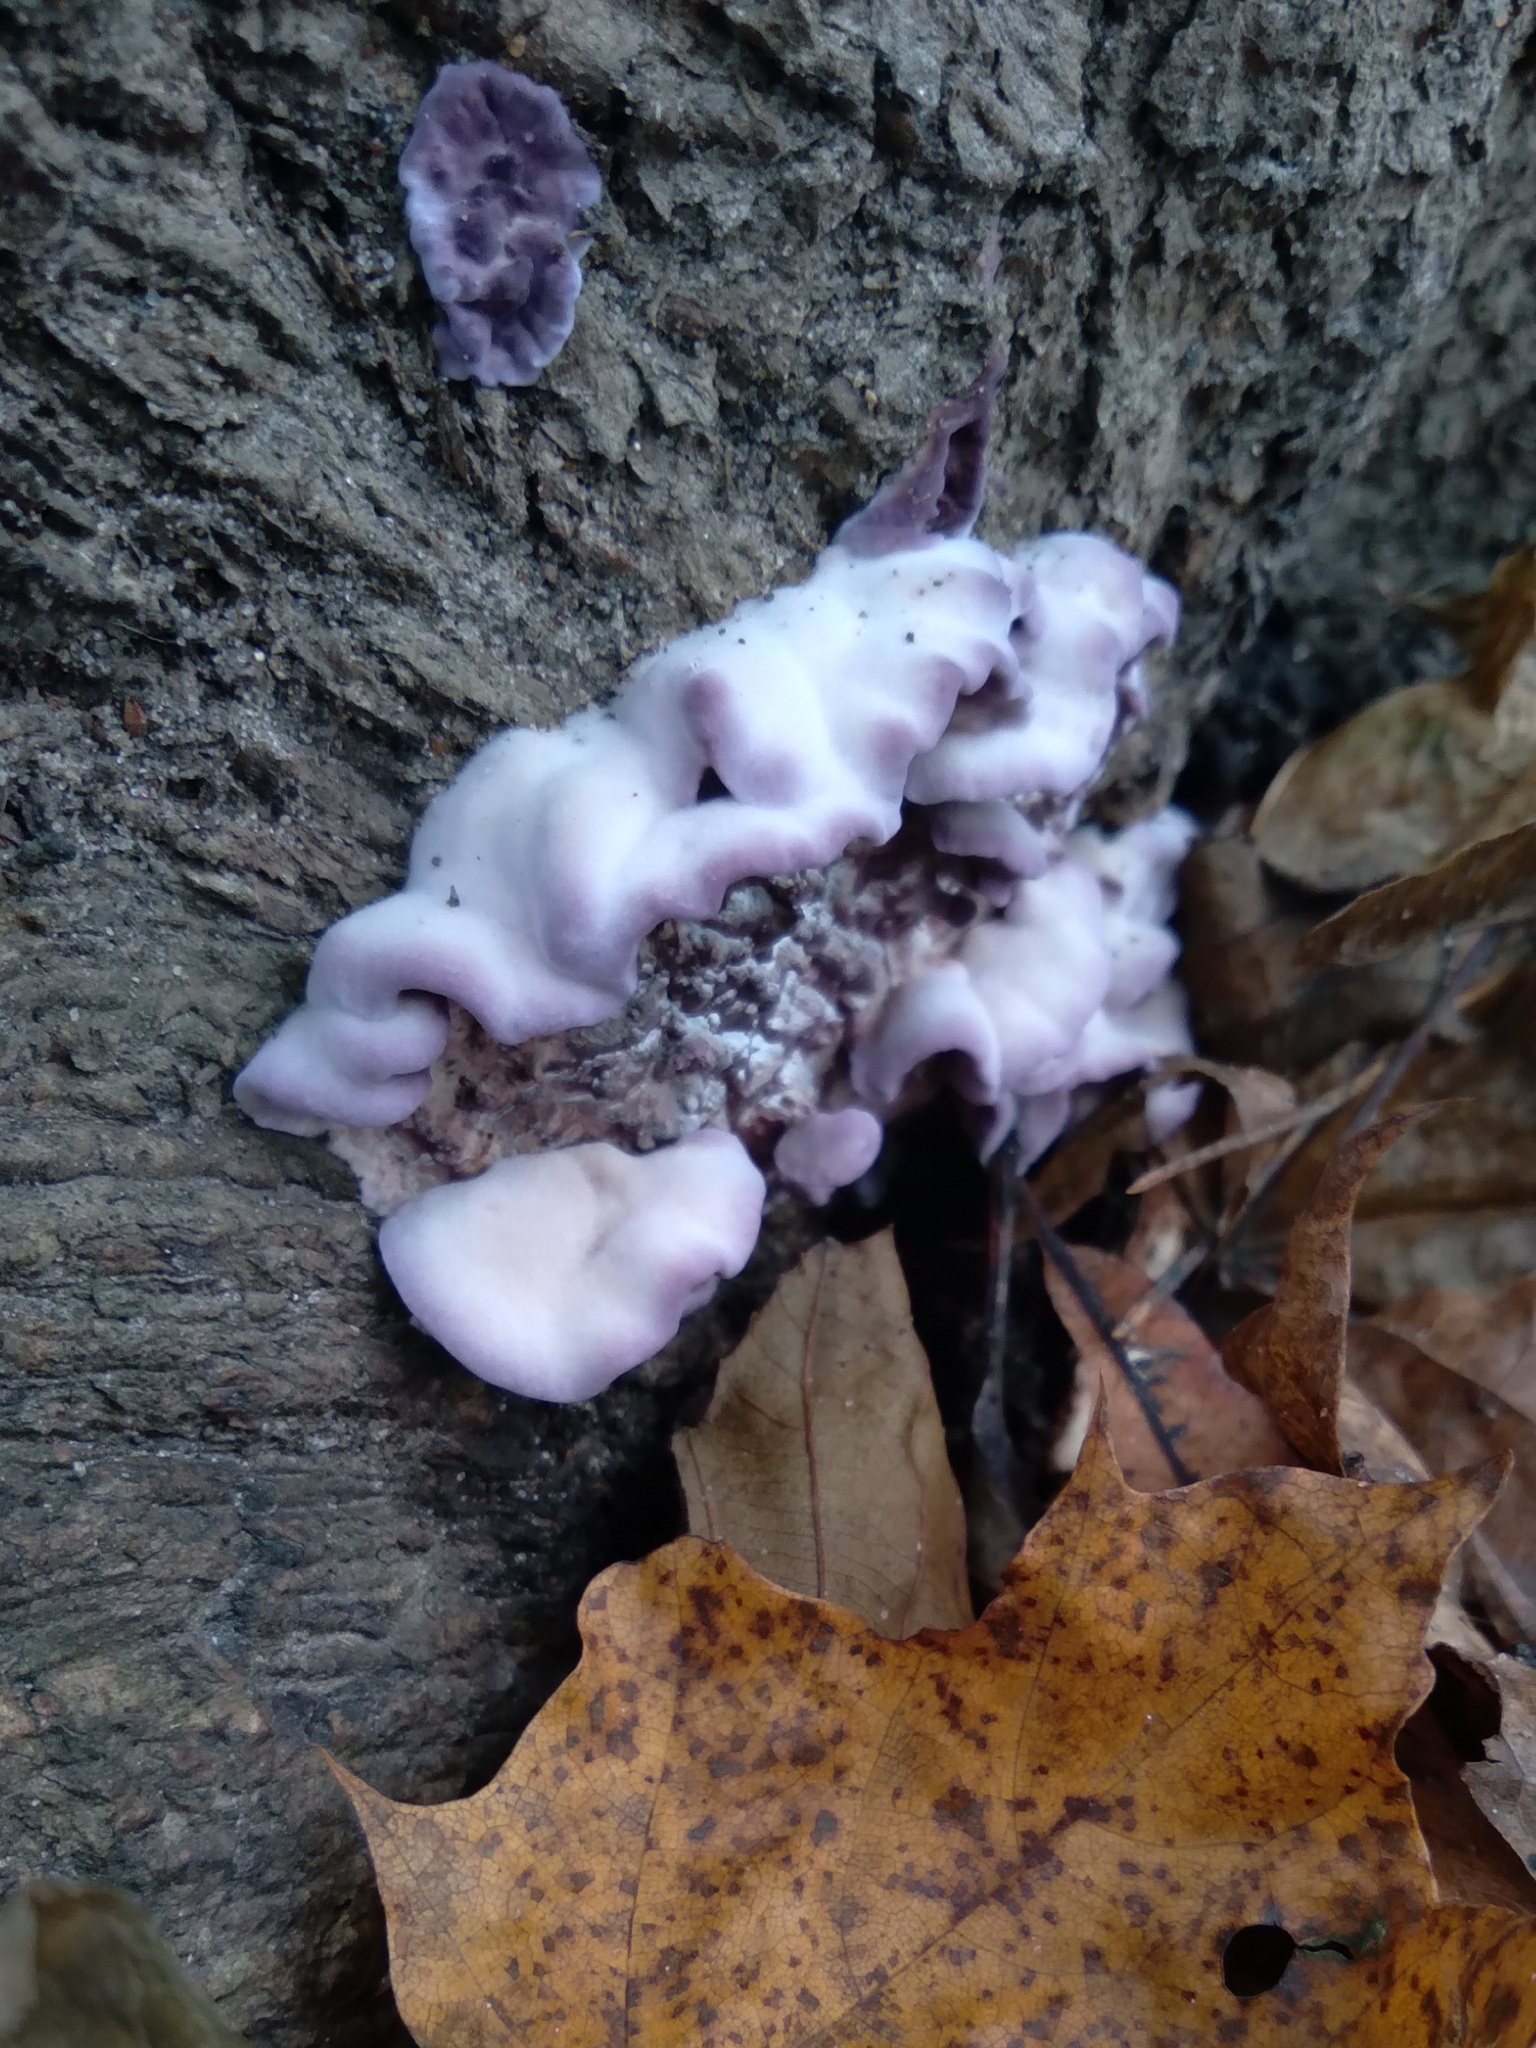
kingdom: Fungi
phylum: Basidiomycota
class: Agaricomycetes
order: Agaricales
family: Cyphellaceae
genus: Chondrostereum
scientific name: Chondrostereum purpureum
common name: Silver leaf disease
